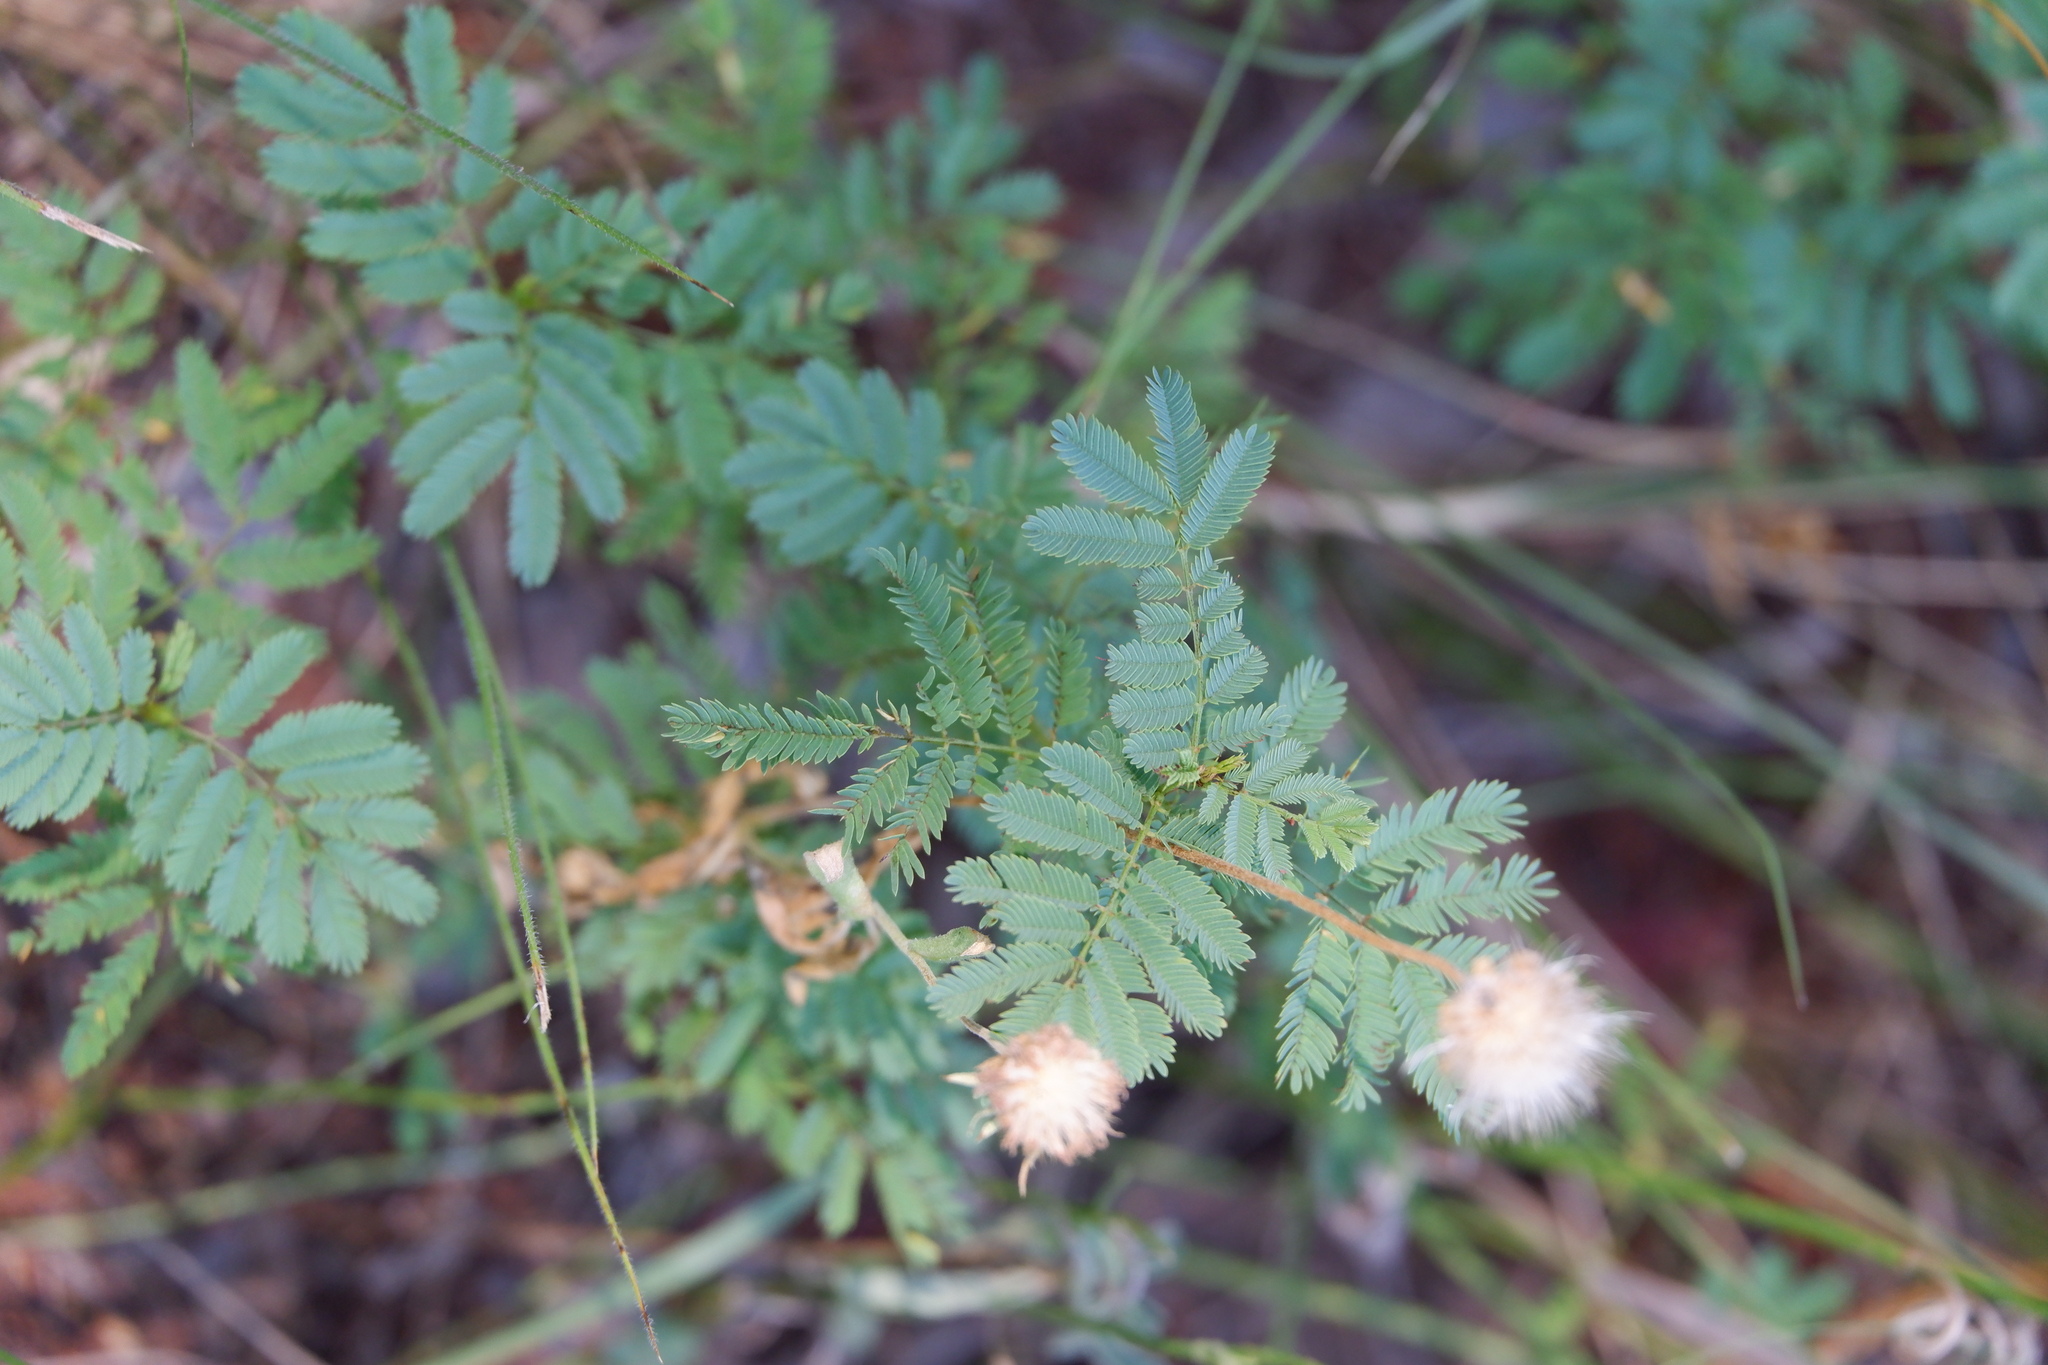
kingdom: Plantae
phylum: Tracheophyta
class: Magnoliopsida
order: Fabales
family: Fabaceae
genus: Desmanthus
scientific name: Desmanthus leptolobus
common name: Prairie-mimosa
